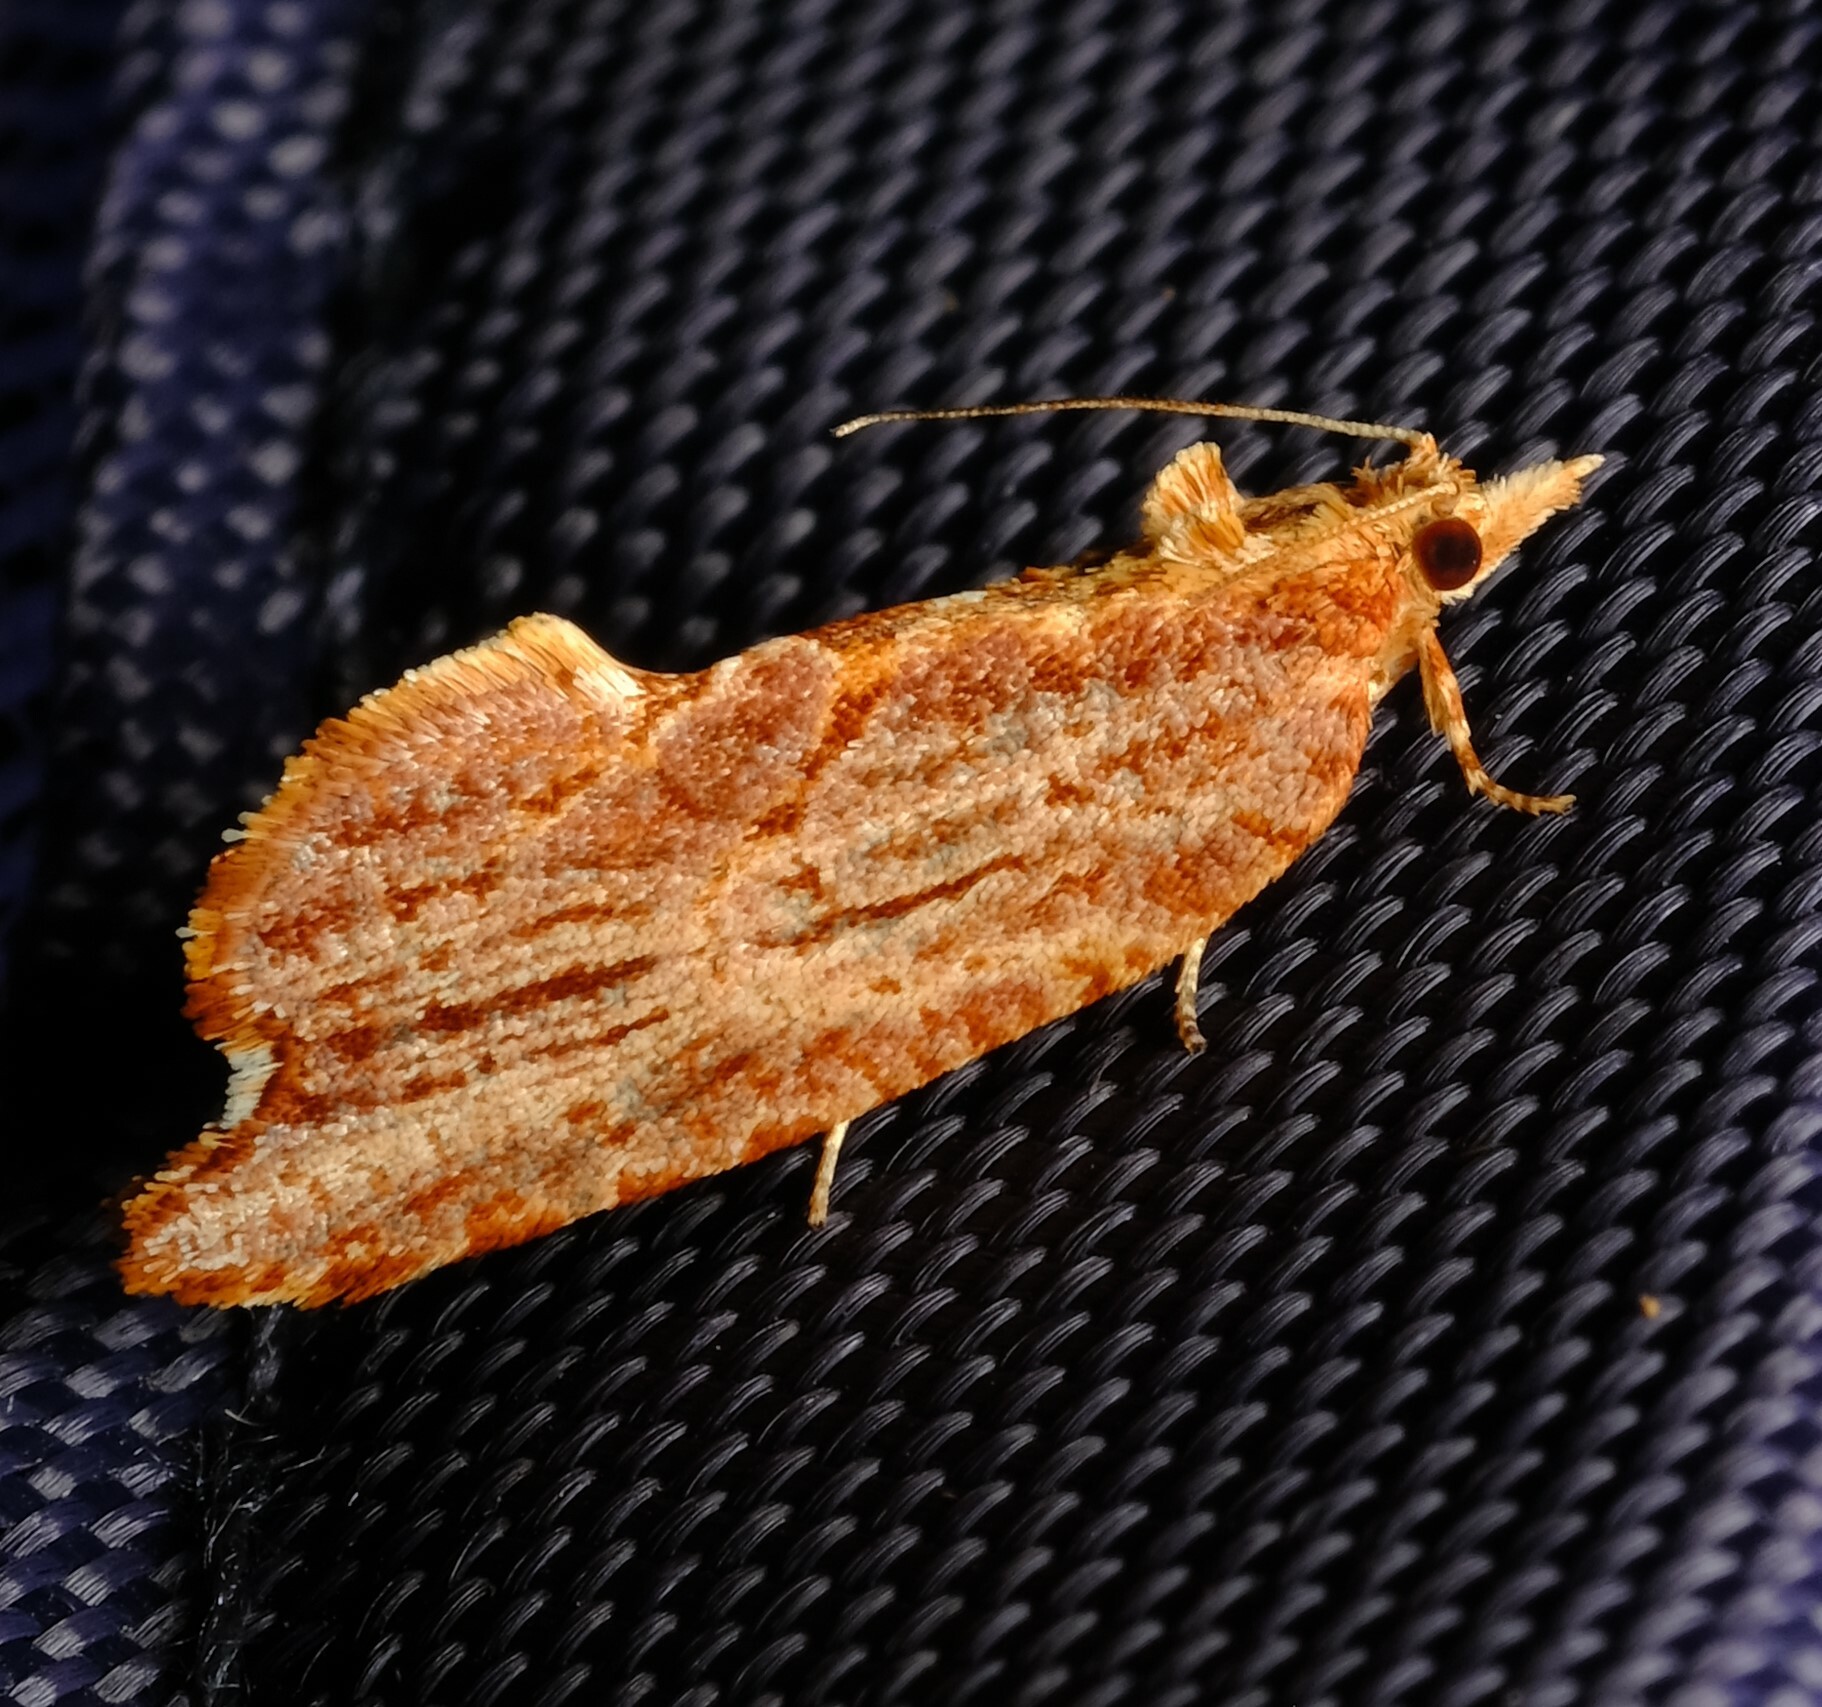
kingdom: Animalia
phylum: Arthropoda
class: Insecta
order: Lepidoptera
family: Tortricidae
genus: Glyphidoptera
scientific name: Glyphidoptera polymita
